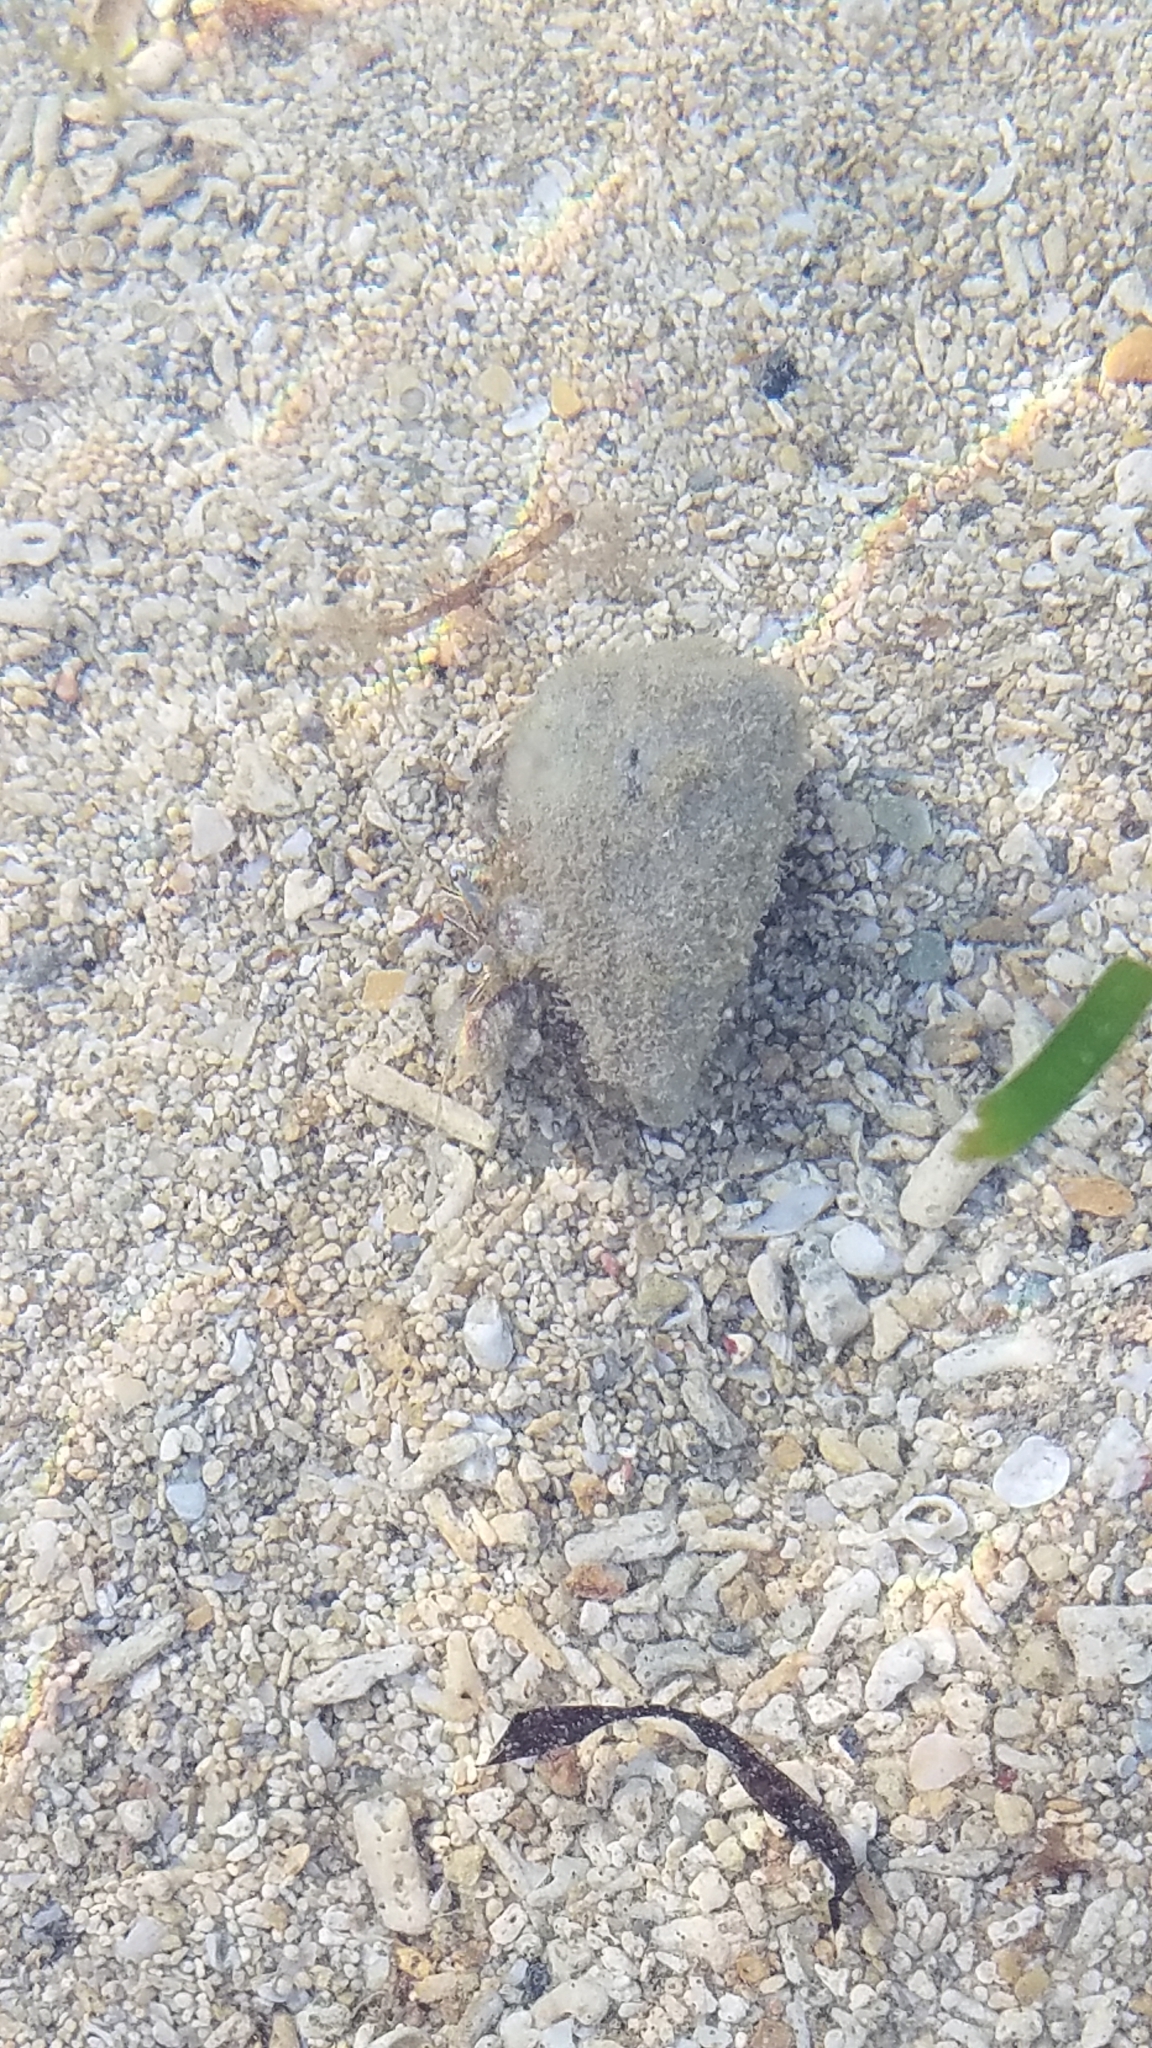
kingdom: Animalia
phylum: Arthropoda
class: Malacostraca
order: Decapoda
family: Diogenidae
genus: Dardanus
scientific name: Dardanus scutellatus
